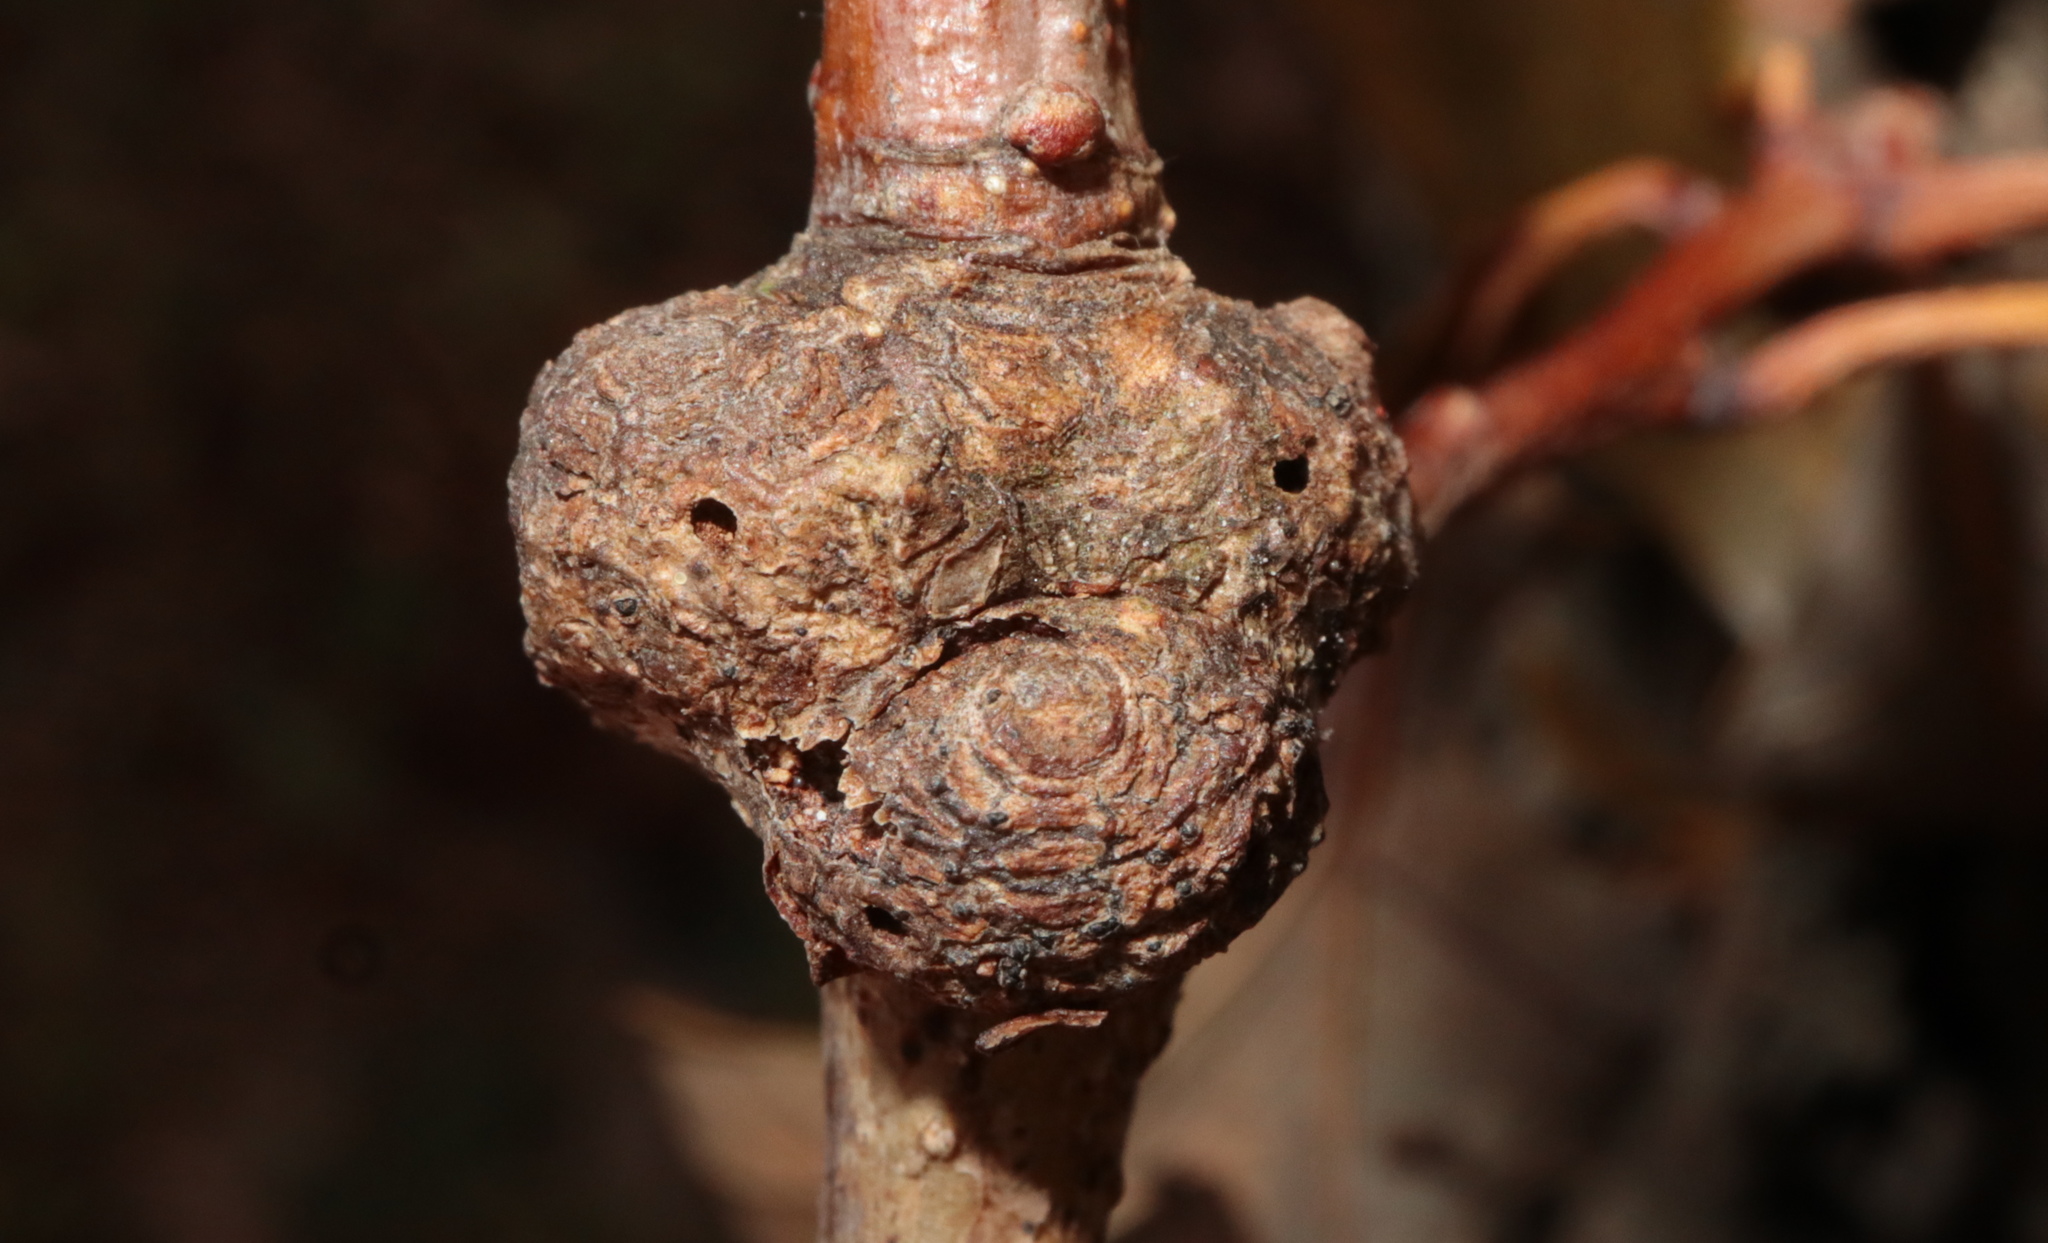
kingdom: Animalia
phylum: Arthropoda
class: Insecta
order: Hymenoptera
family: Cynipidae
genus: Loxaulus
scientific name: Loxaulus
